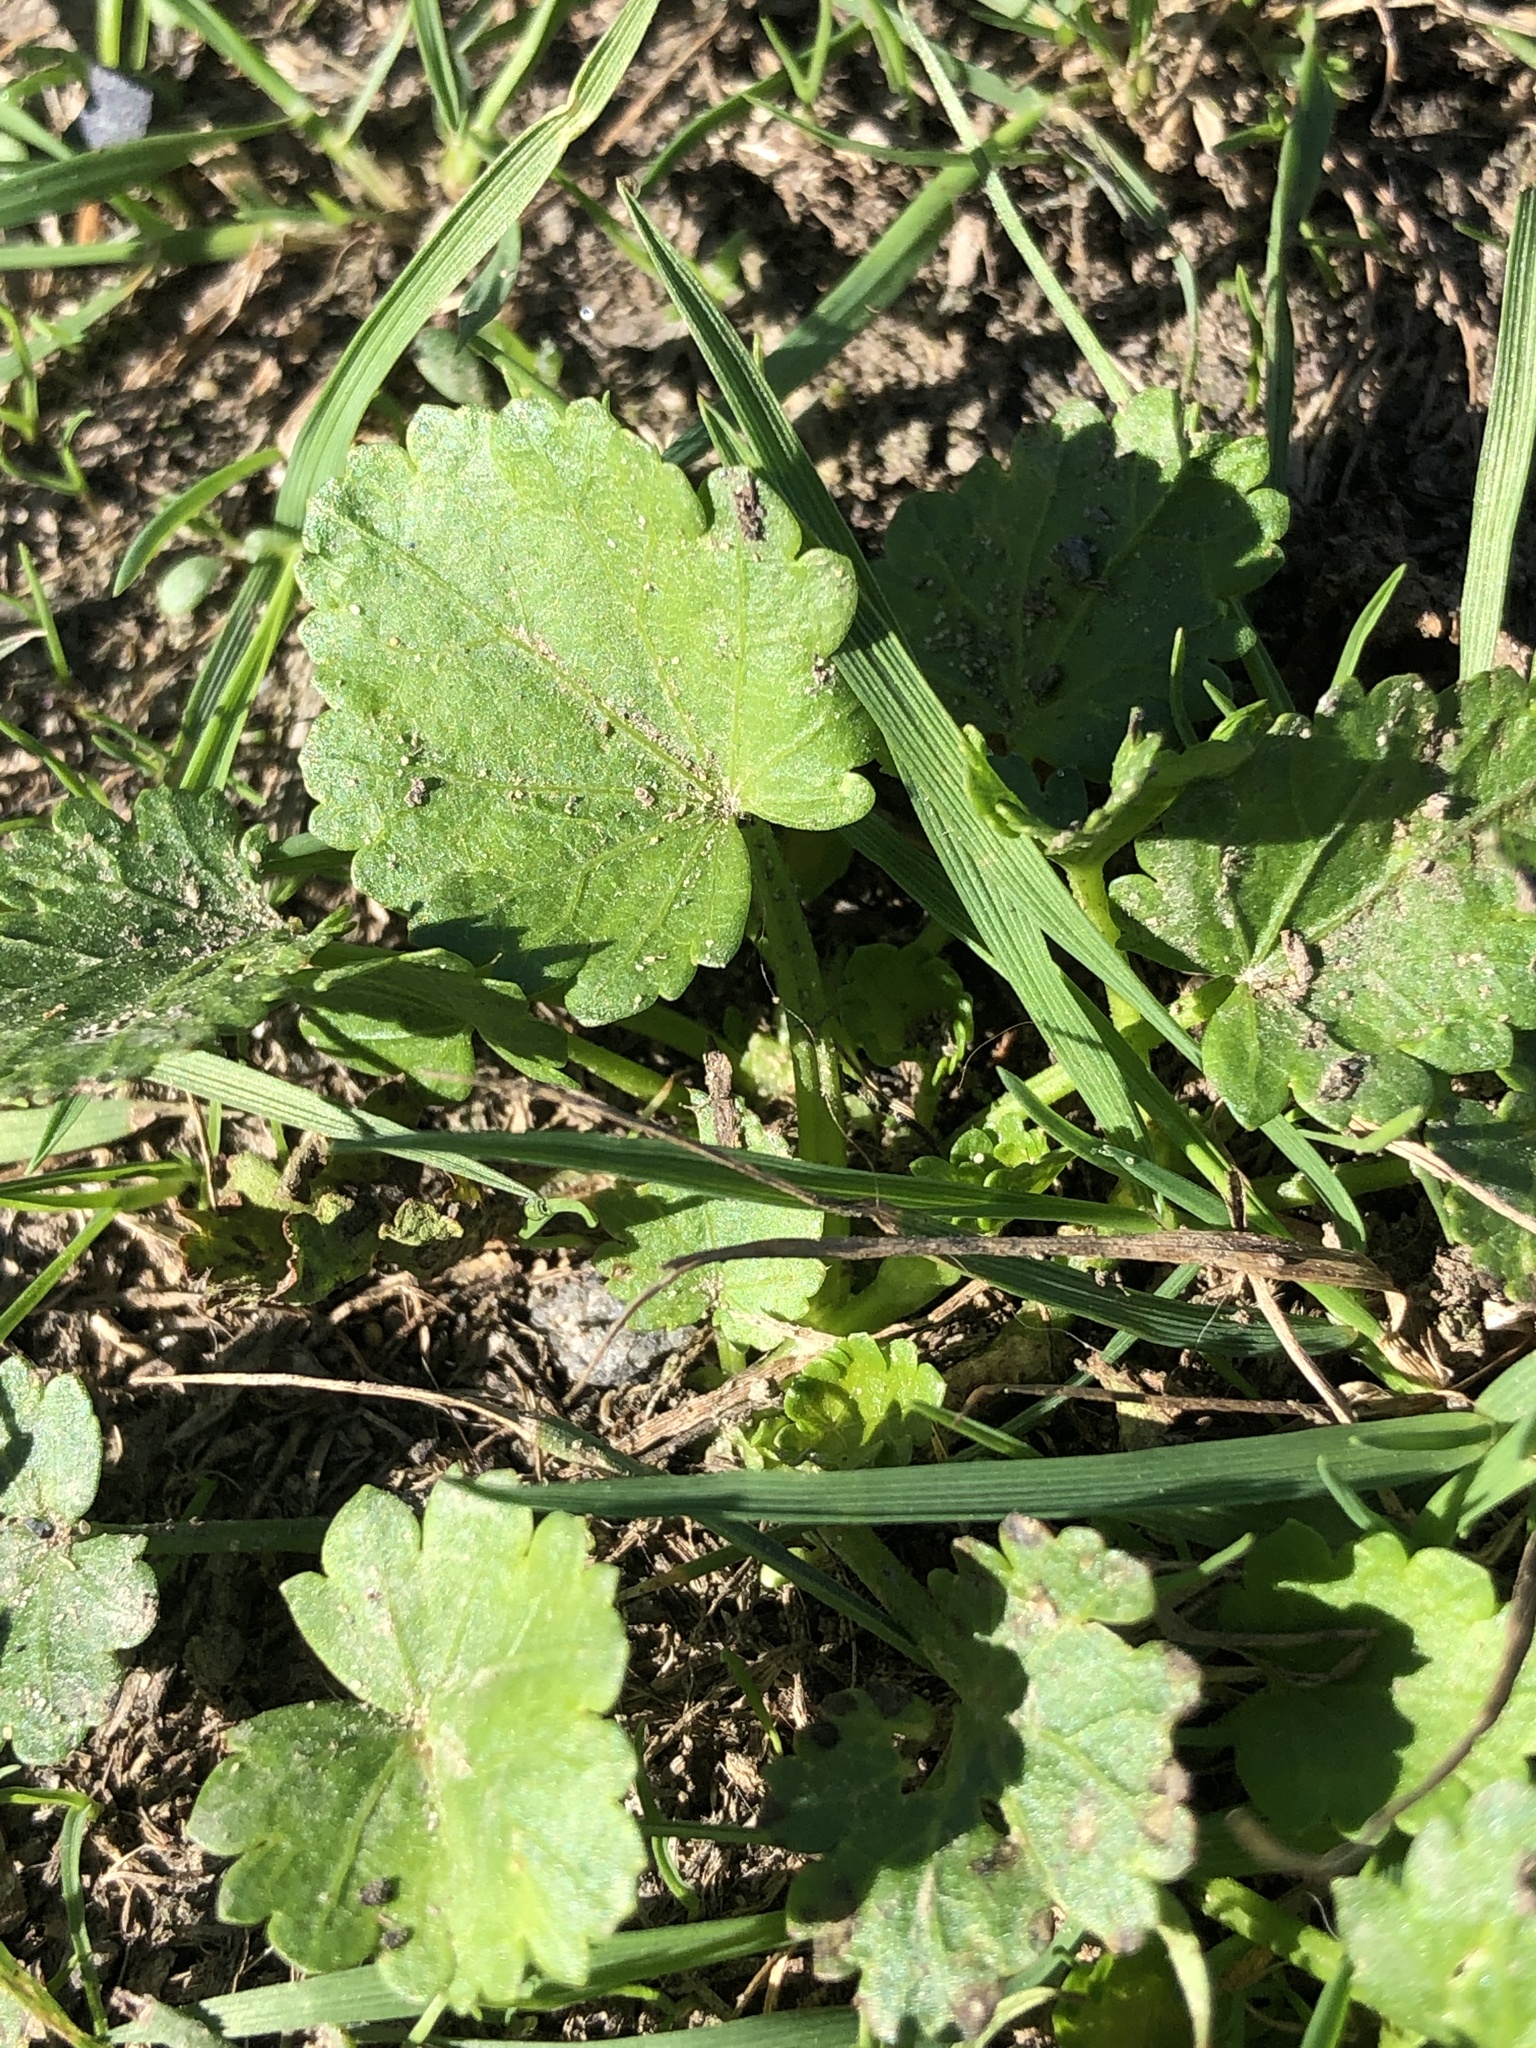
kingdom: Plantae
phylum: Tracheophyta
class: Magnoliopsida
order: Malvales
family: Malvaceae
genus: Modiola
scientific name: Modiola caroliniana
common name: Carolina bristlemallow
